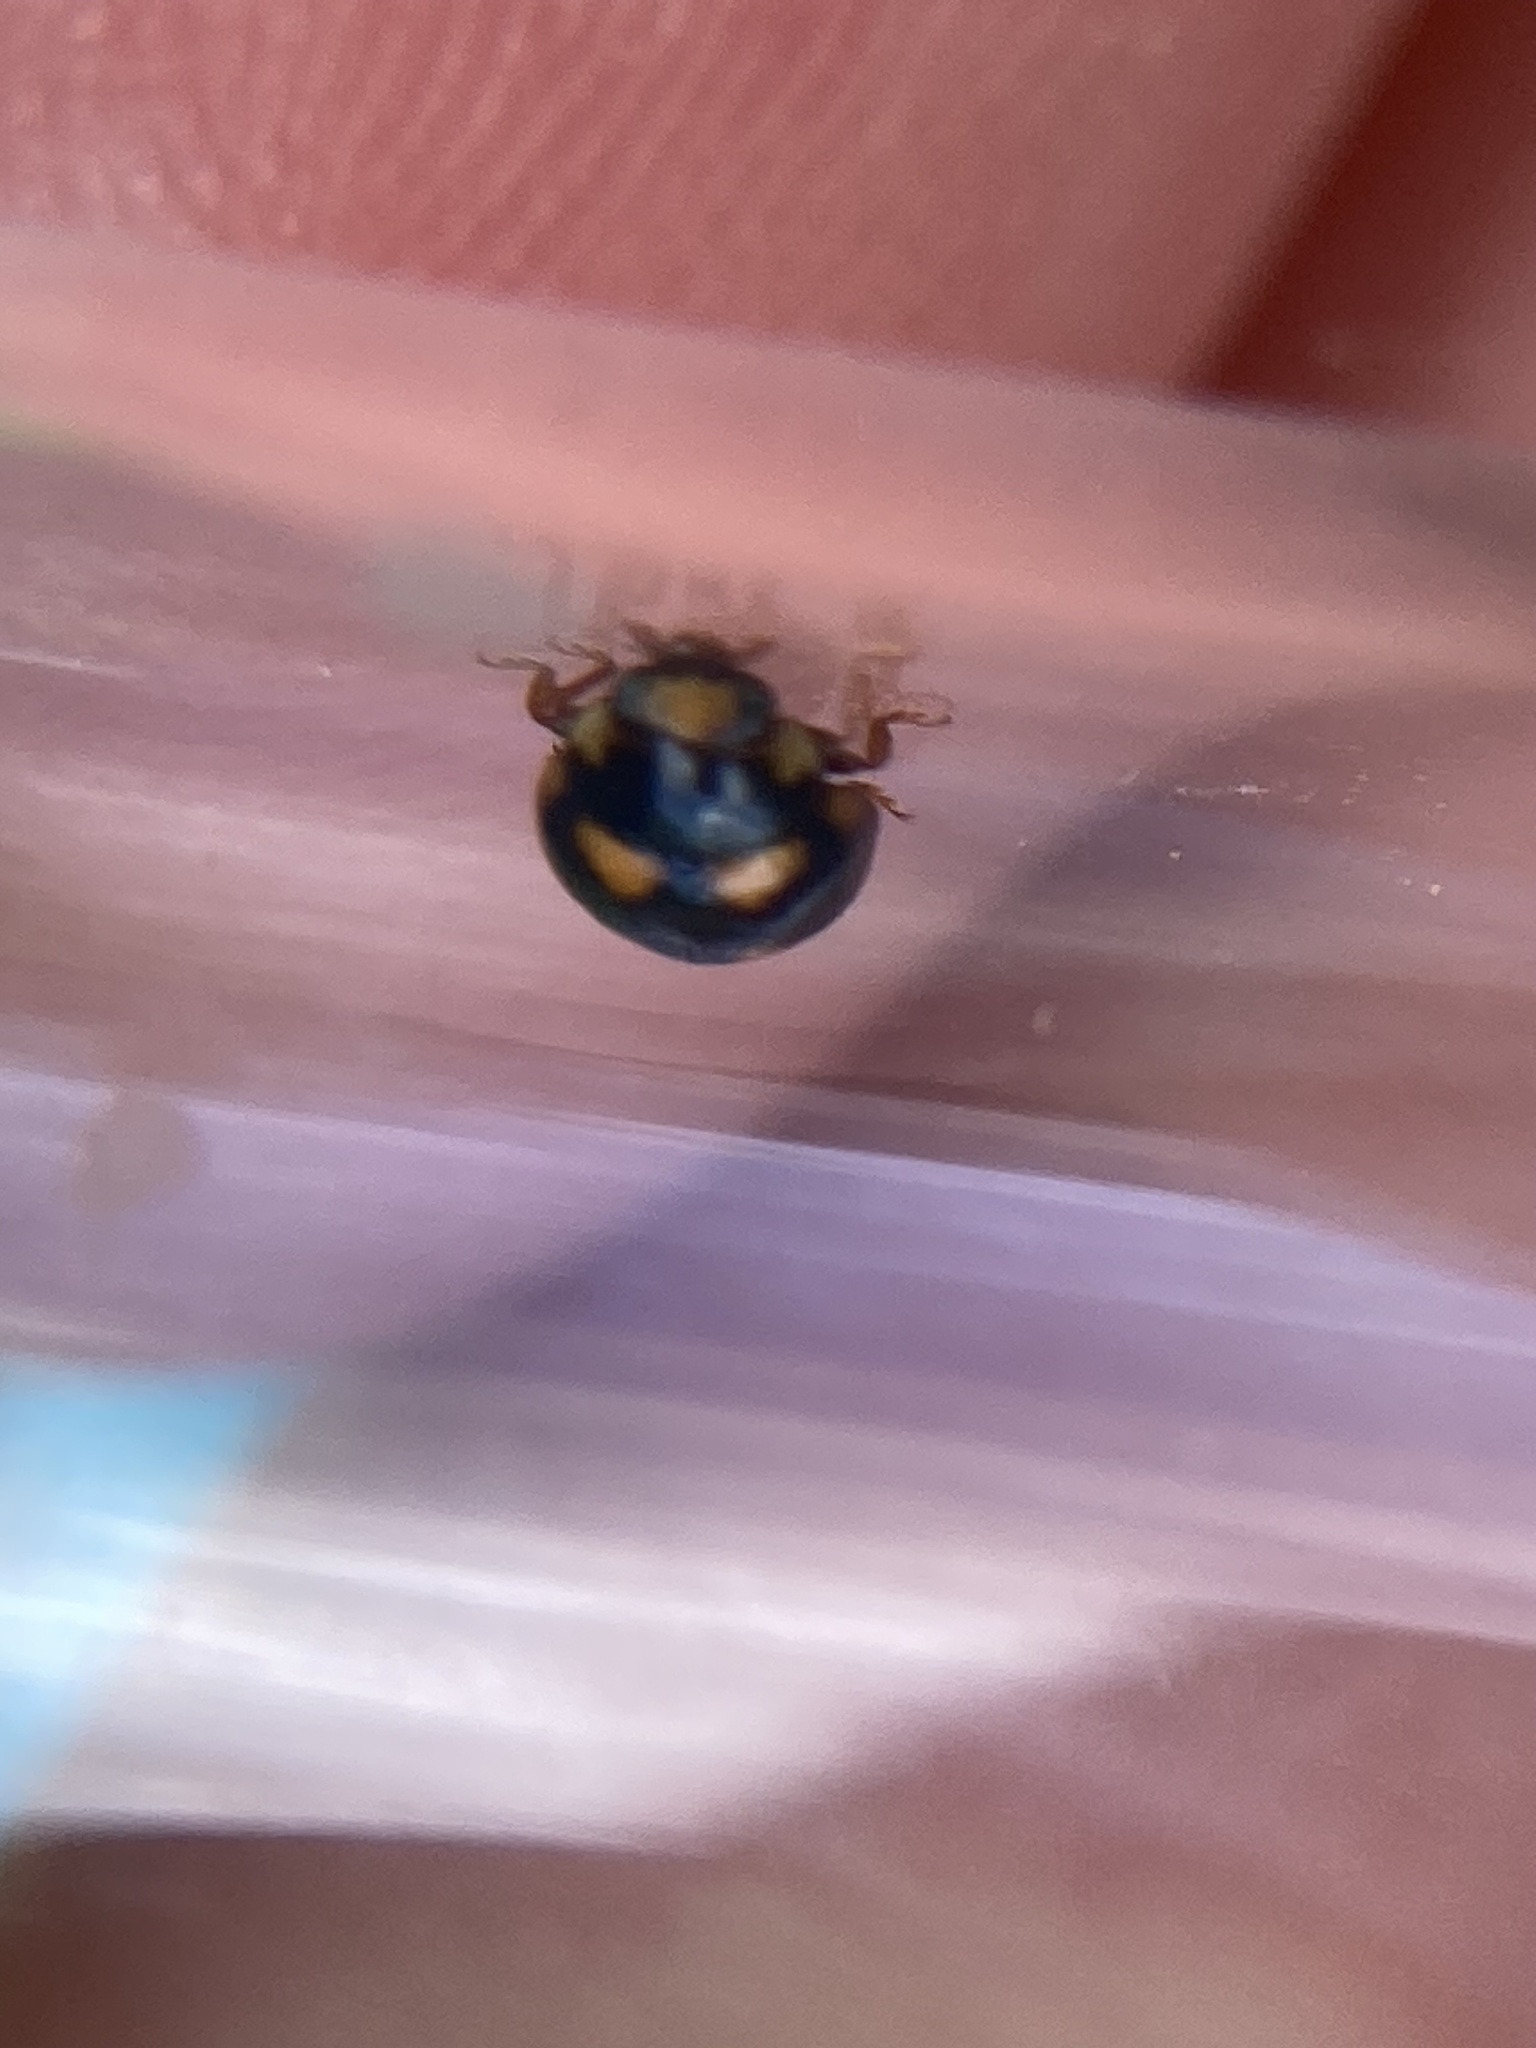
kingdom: Animalia
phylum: Arthropoda
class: Insecta
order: Coleoptera
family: Coccinellidae
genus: Brachiacantha
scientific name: Brachiacantha ursina
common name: Ursine spurleg lady beetle
